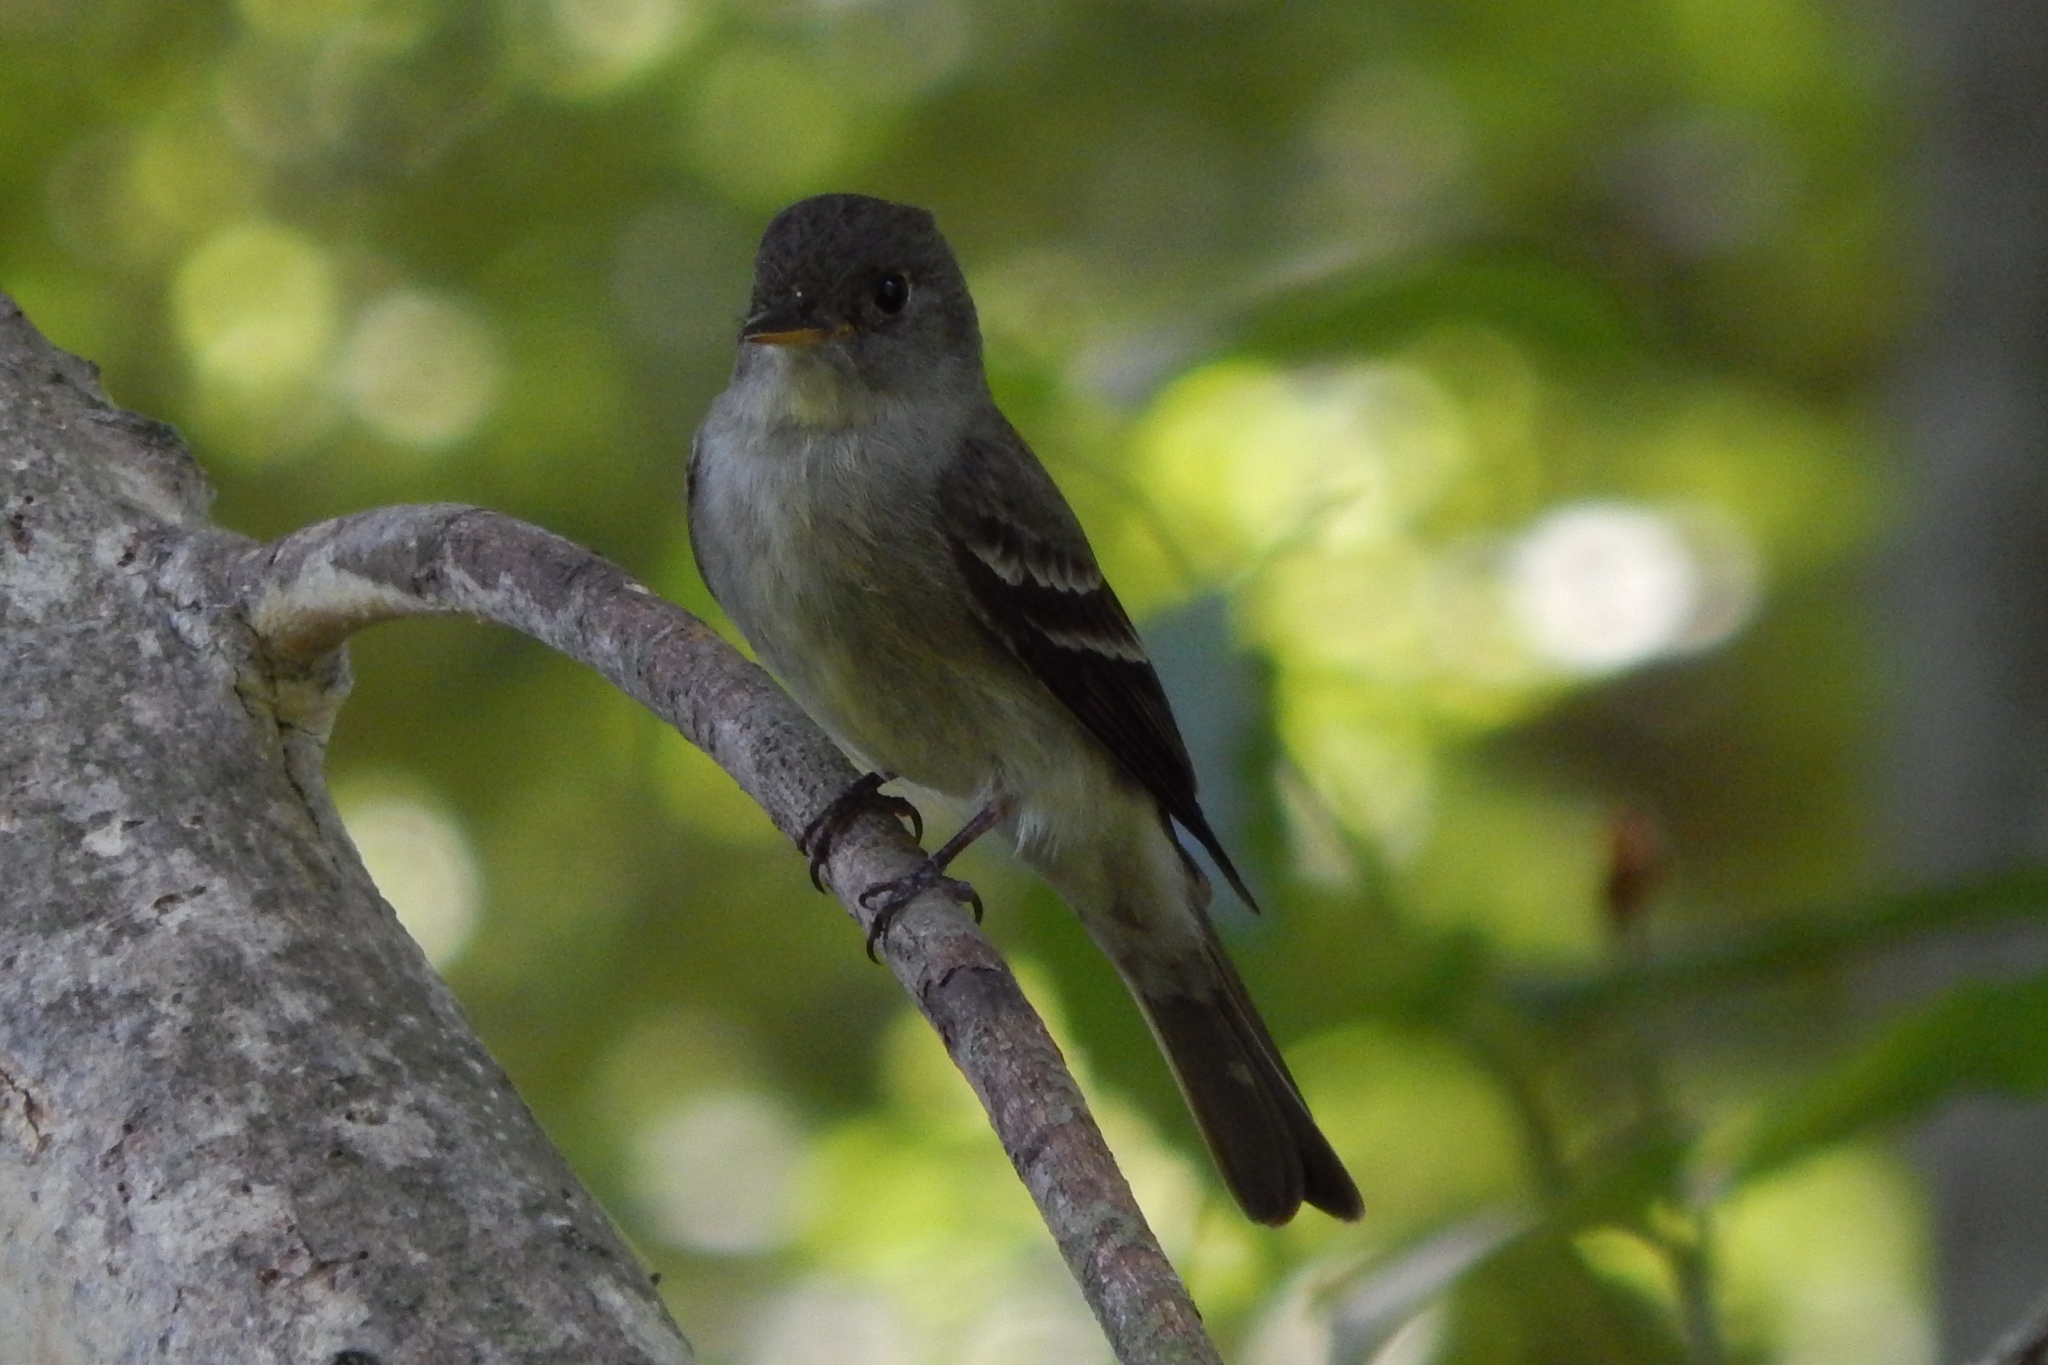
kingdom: Animalia
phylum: Chordata
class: Aves
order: Passeriformes
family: Tyrannidae
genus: Contopus
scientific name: Contopus virens
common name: Eastern wood-pewee
